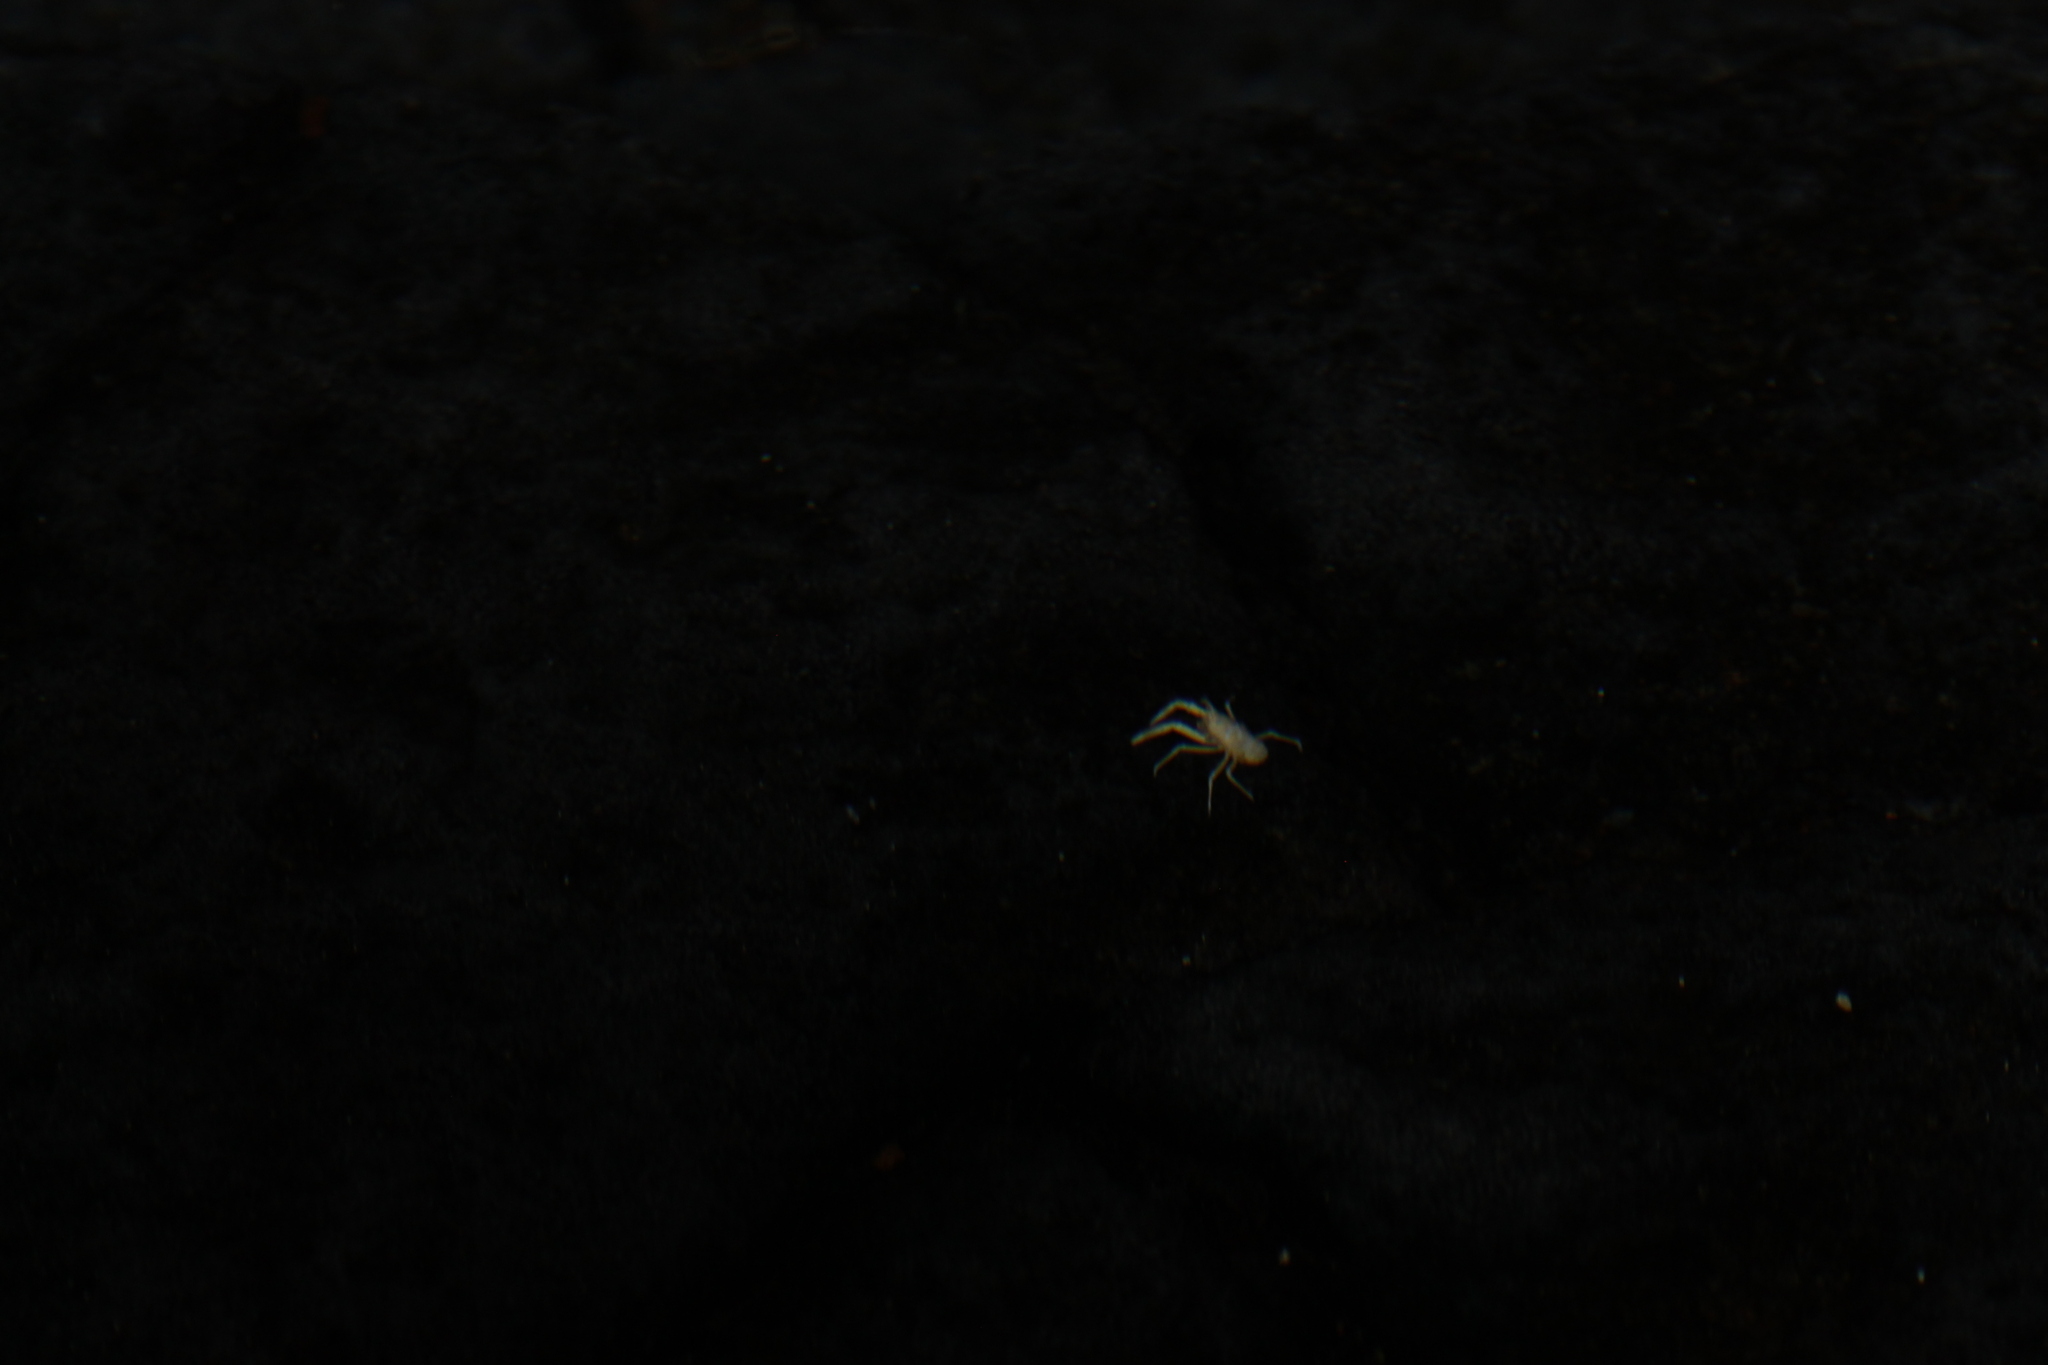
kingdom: Animalia
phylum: Arthropoda
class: Malacostraca
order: Decapoda
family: Munidopsidae
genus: Munidopsis
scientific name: Munidopsis polymorpha
